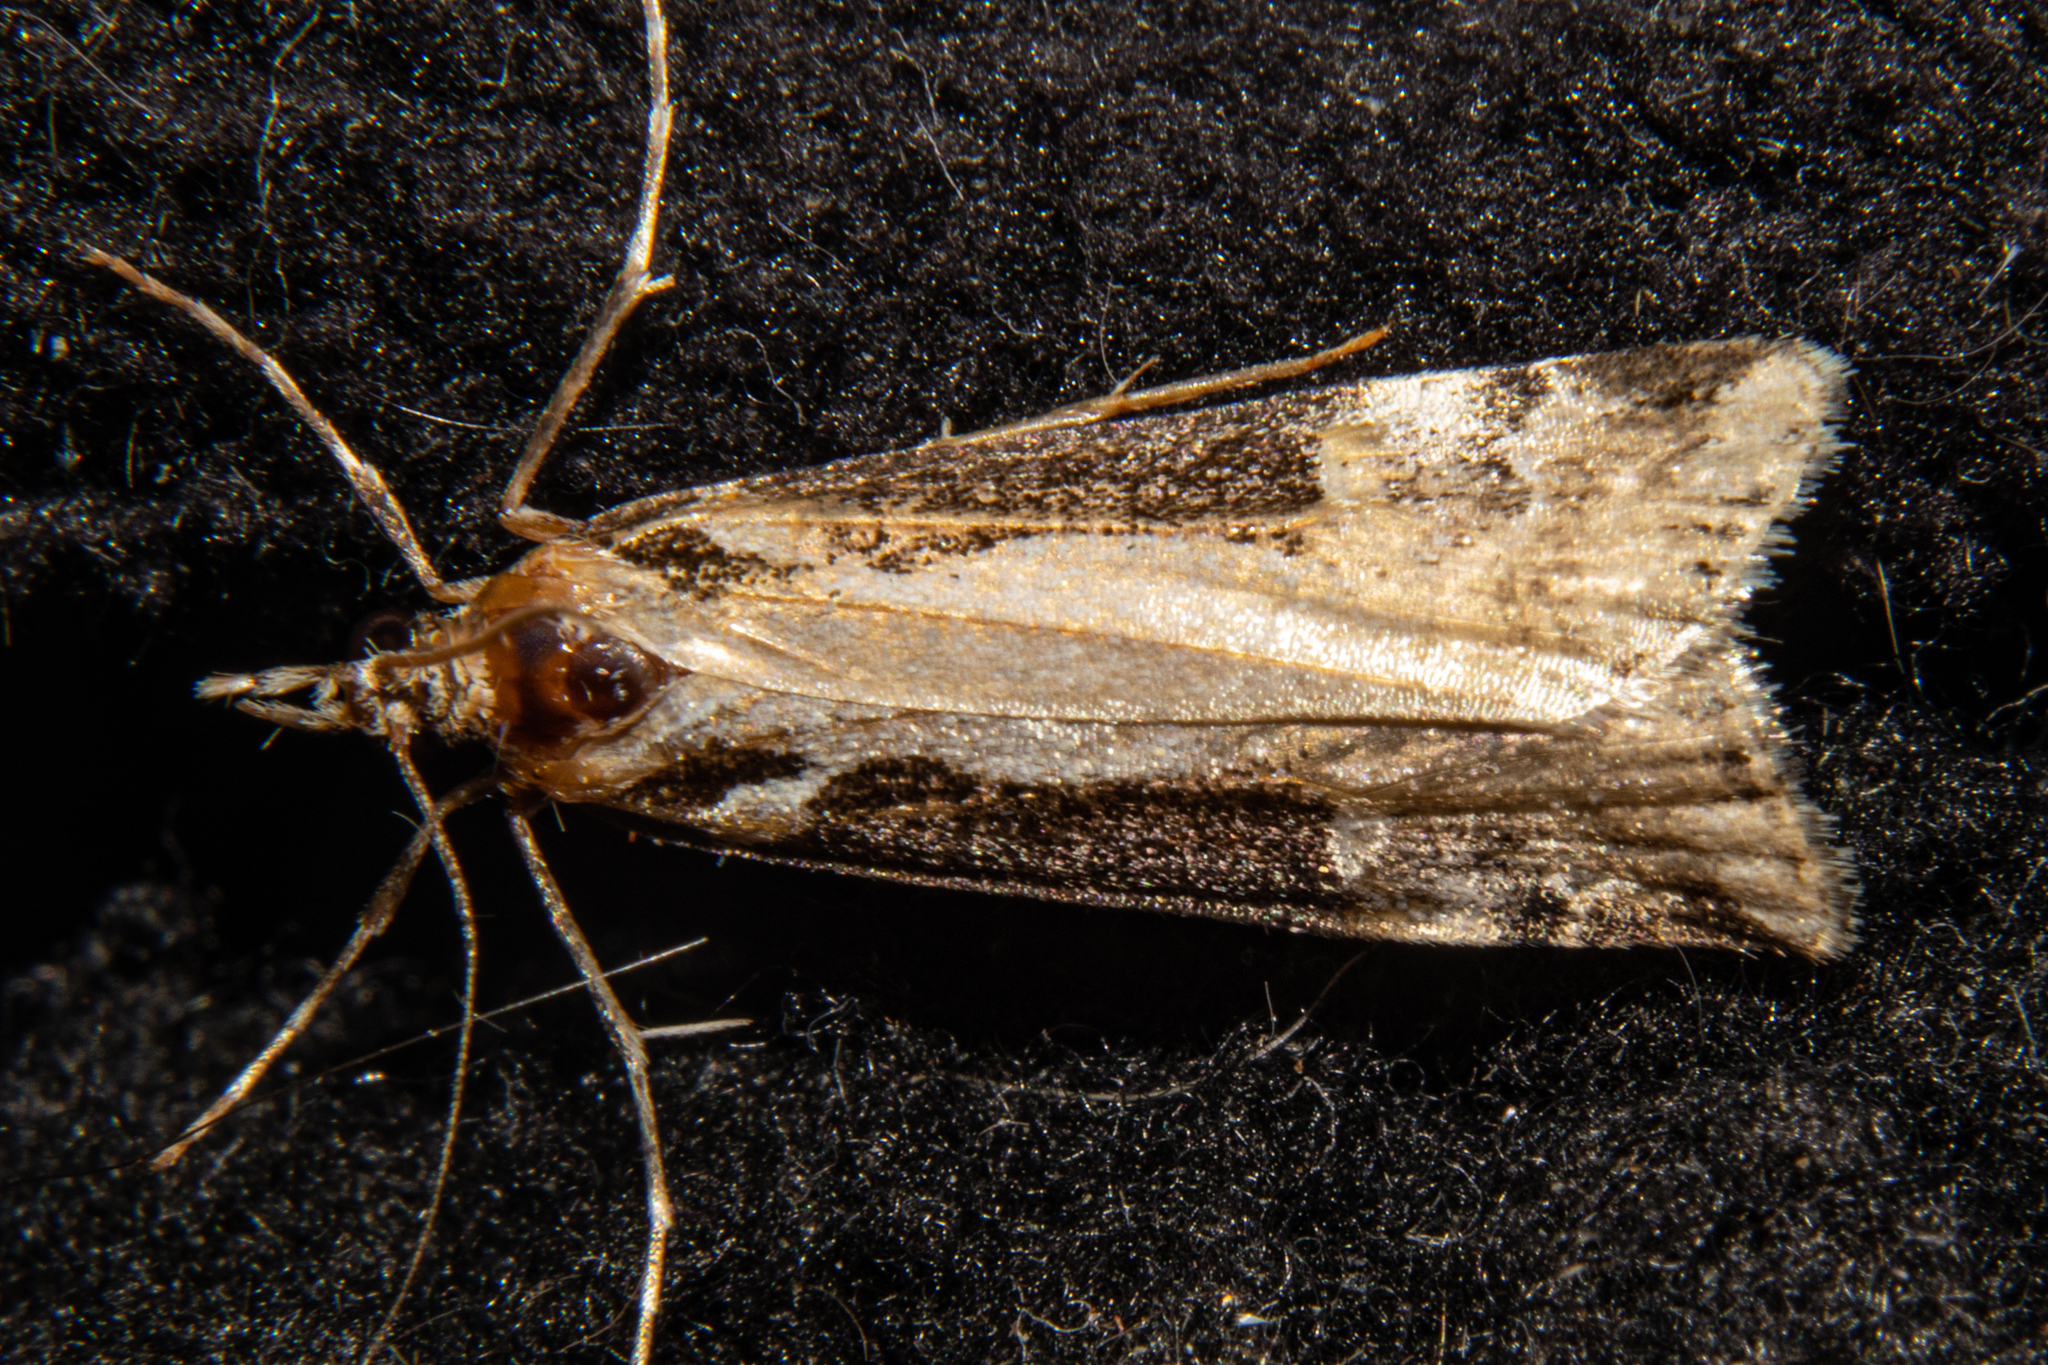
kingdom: Animalia
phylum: Arthropoda
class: Insecta
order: Lepidoptera
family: Crambidae
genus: Scoparia
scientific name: Scoparia trapezophora
